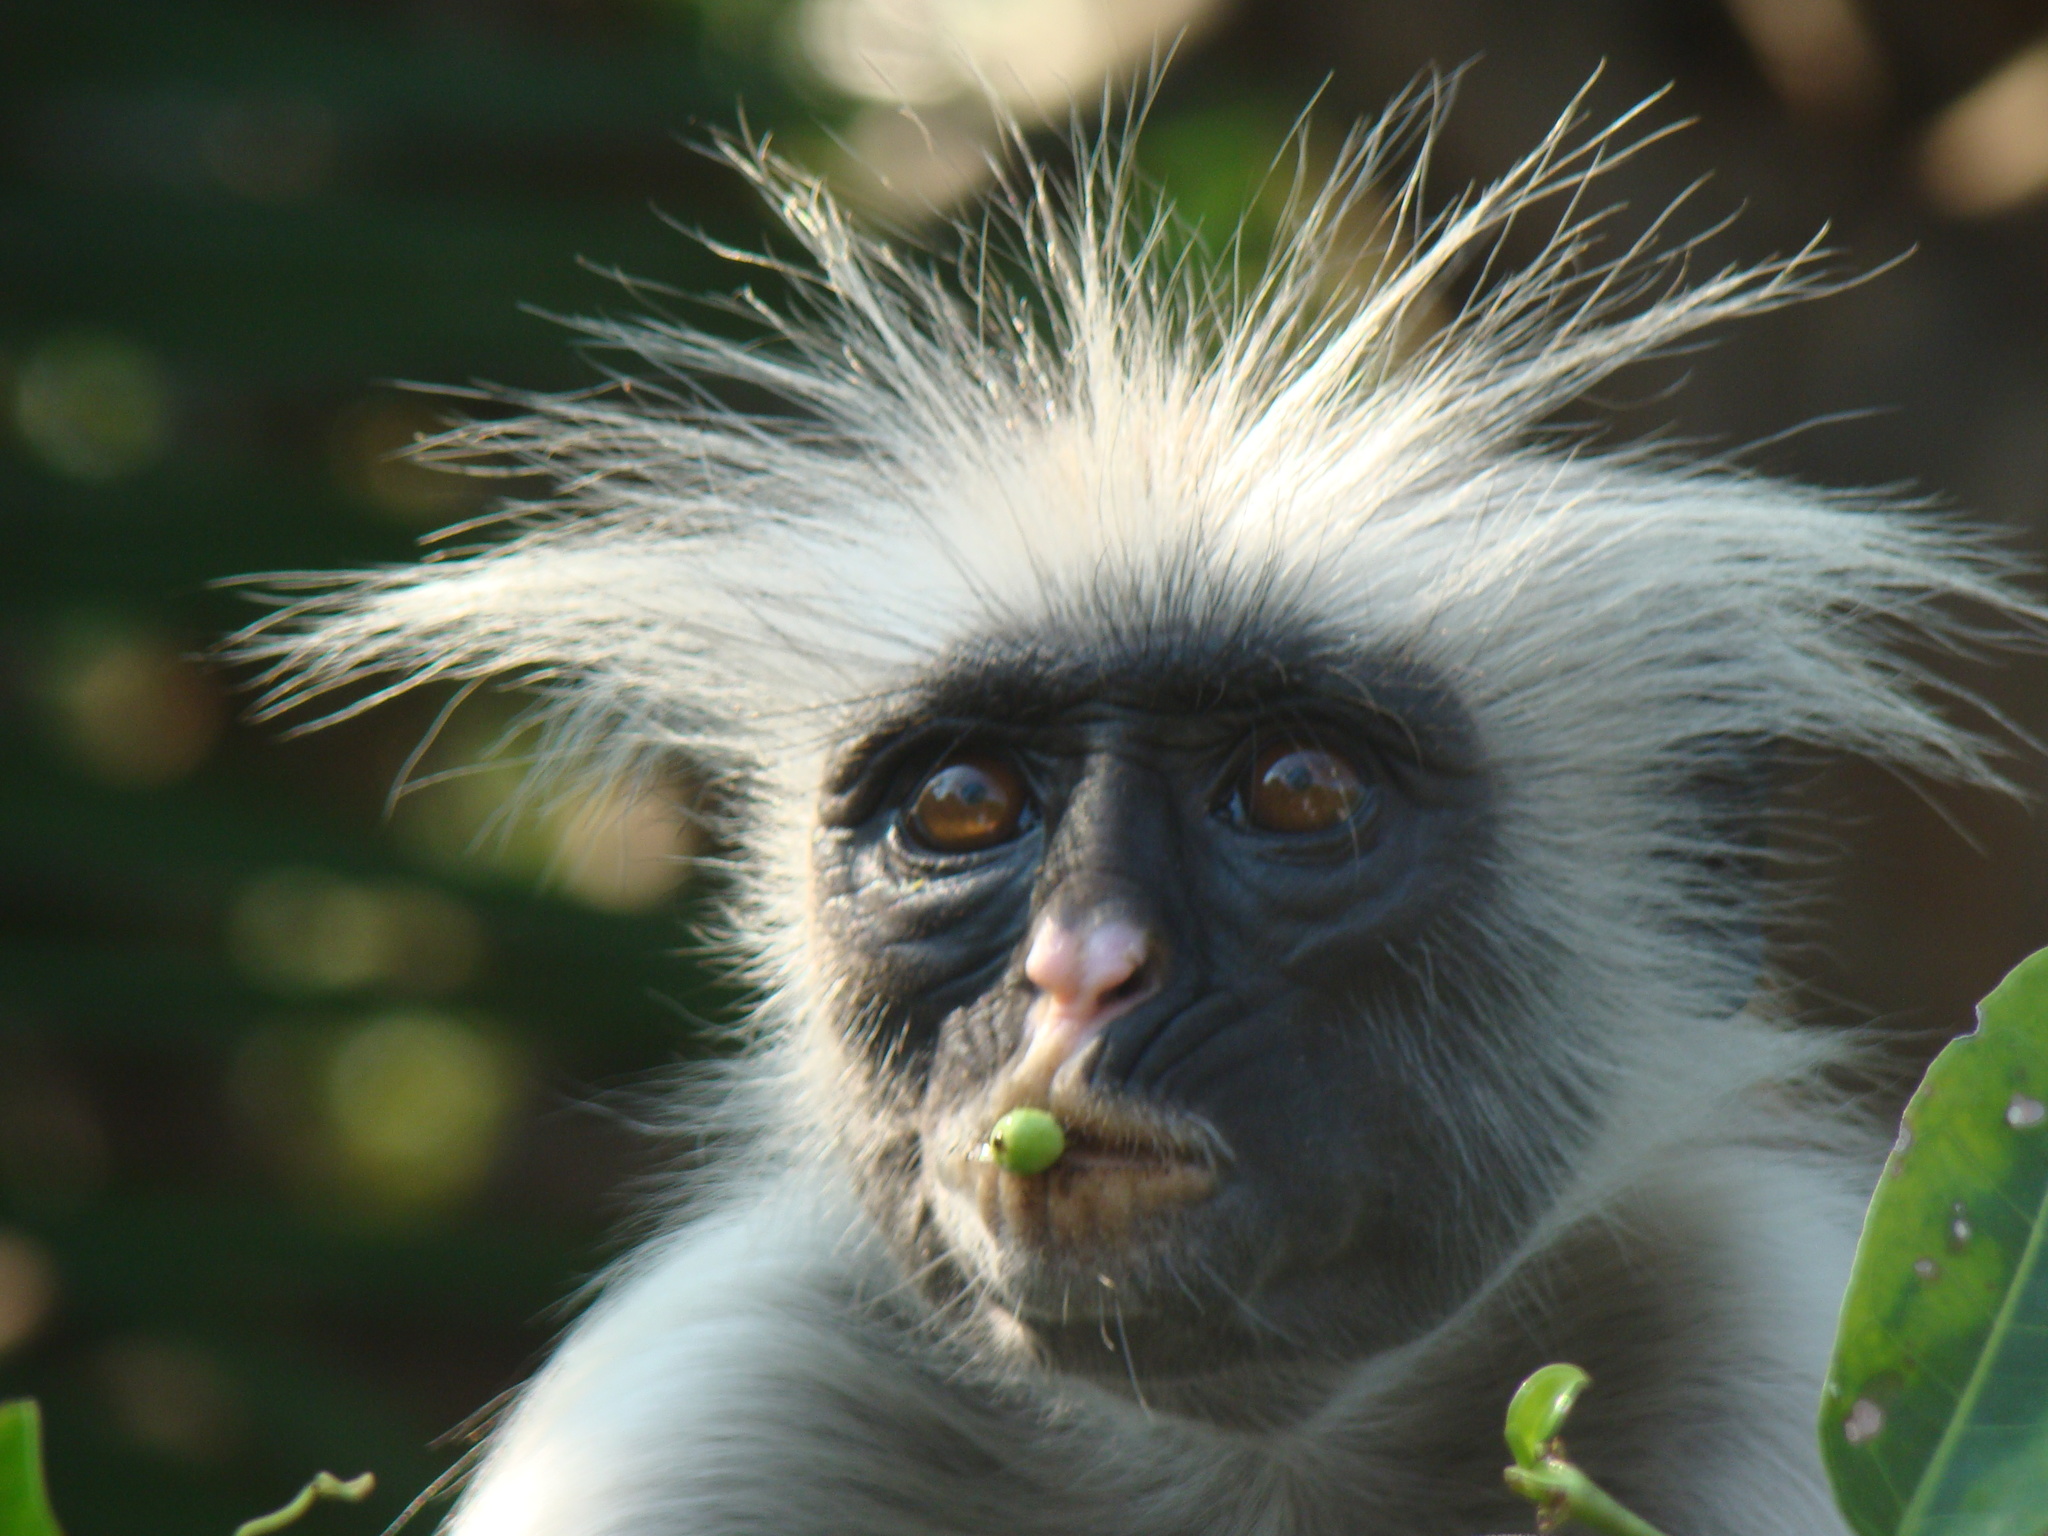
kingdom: Animalia
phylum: Chordata
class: Mammalia
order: Primates
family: Cercopithecidae
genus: Piliocolobus
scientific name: Piliocolobus kirkii
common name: Zanzibar red colobus
